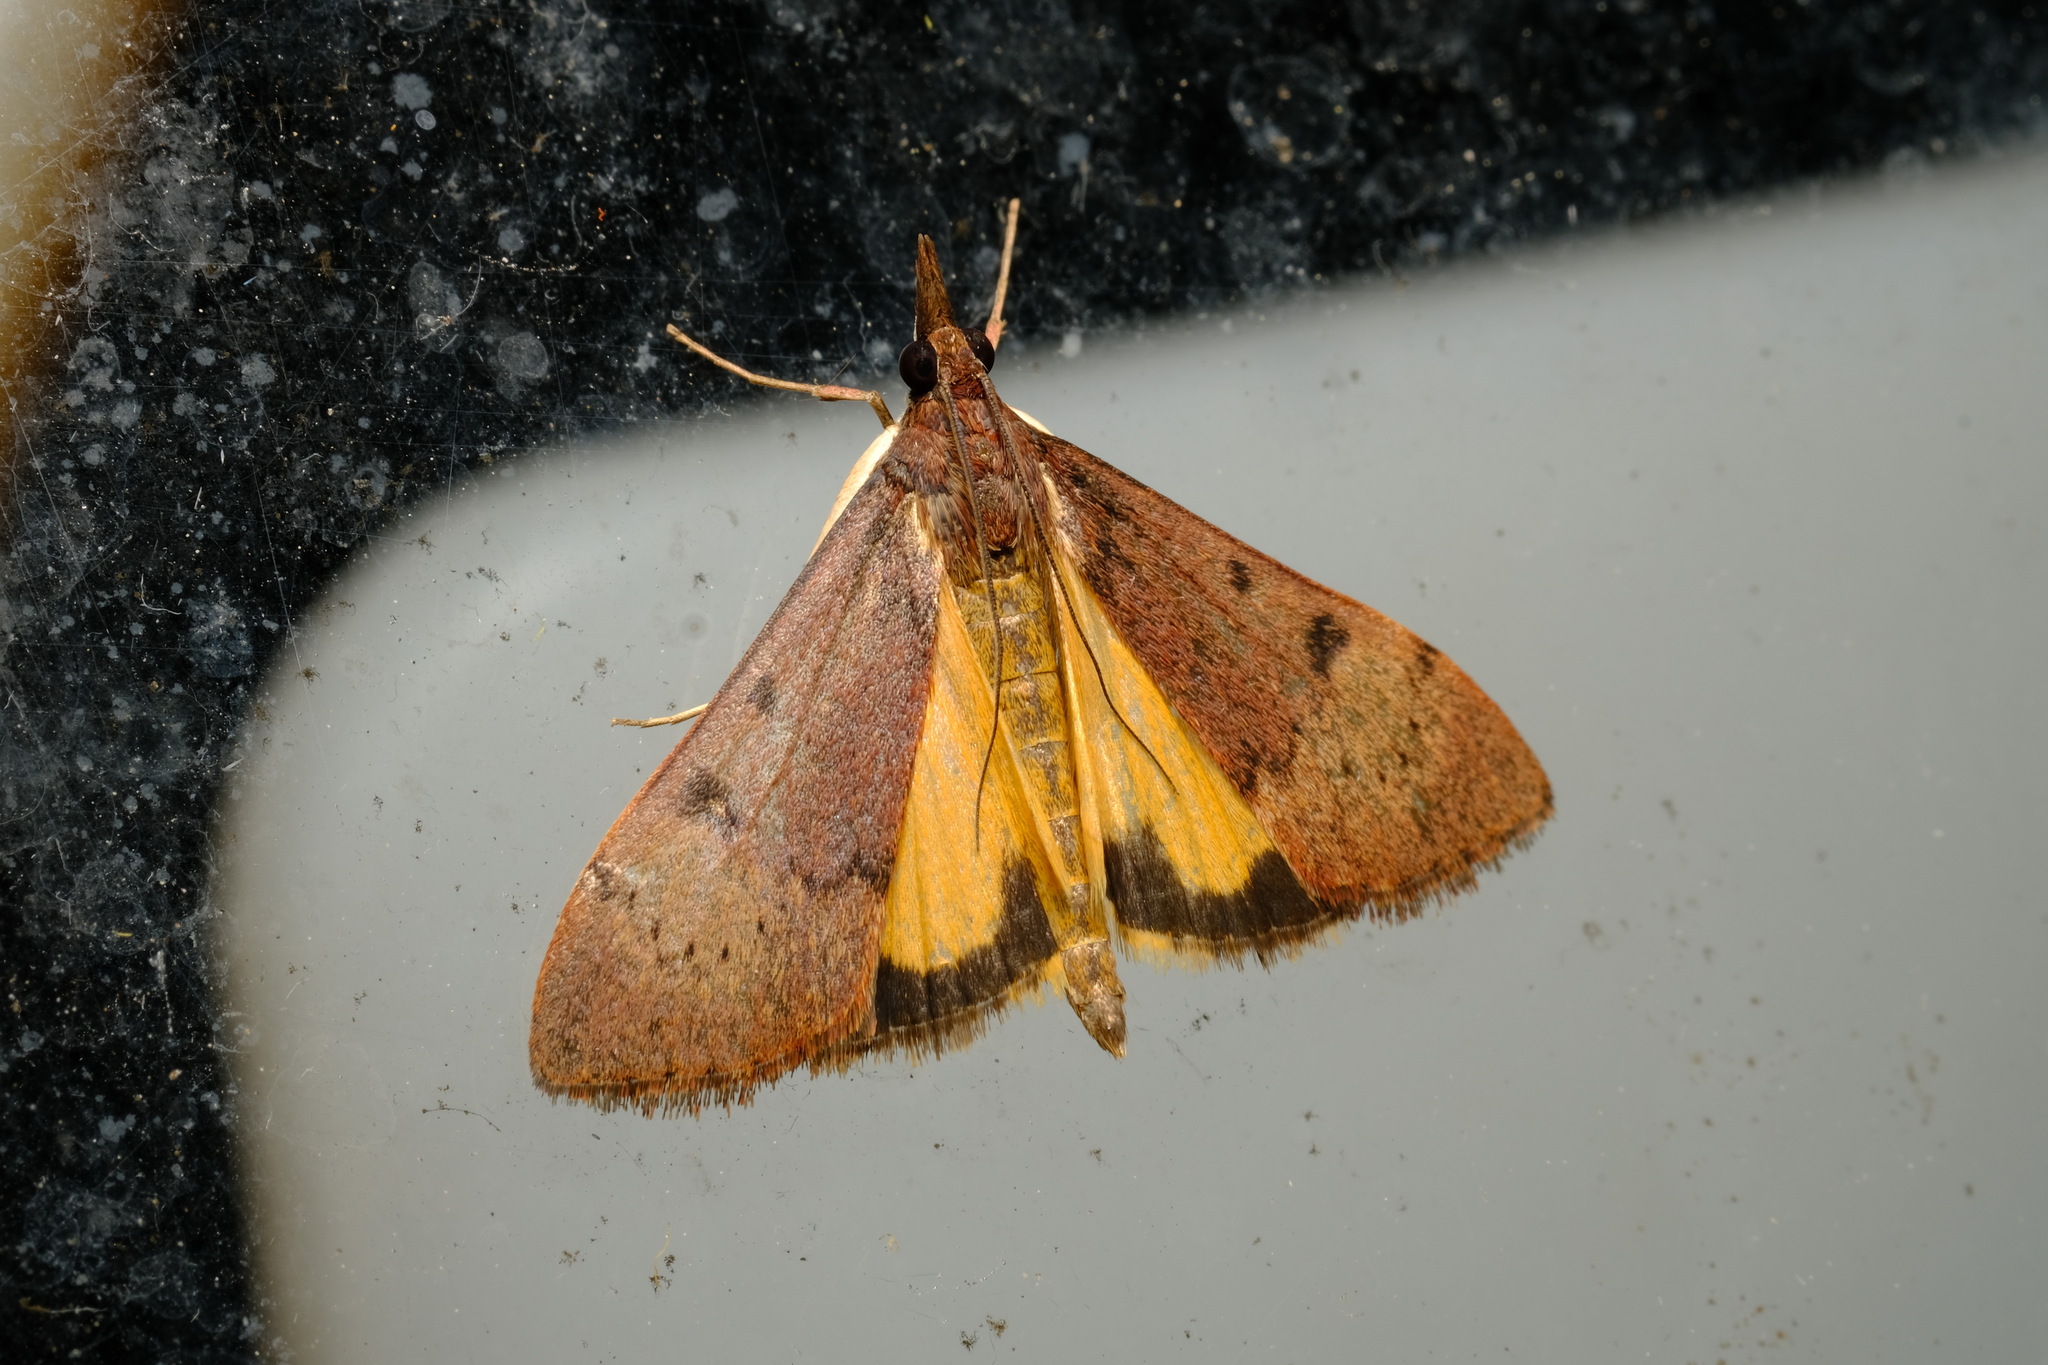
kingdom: Animalia
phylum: Arthropoda
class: Insecta
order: Lepidoptera
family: Crambidae
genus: Uresiphita
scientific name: Uresiphita ornithopteralis
